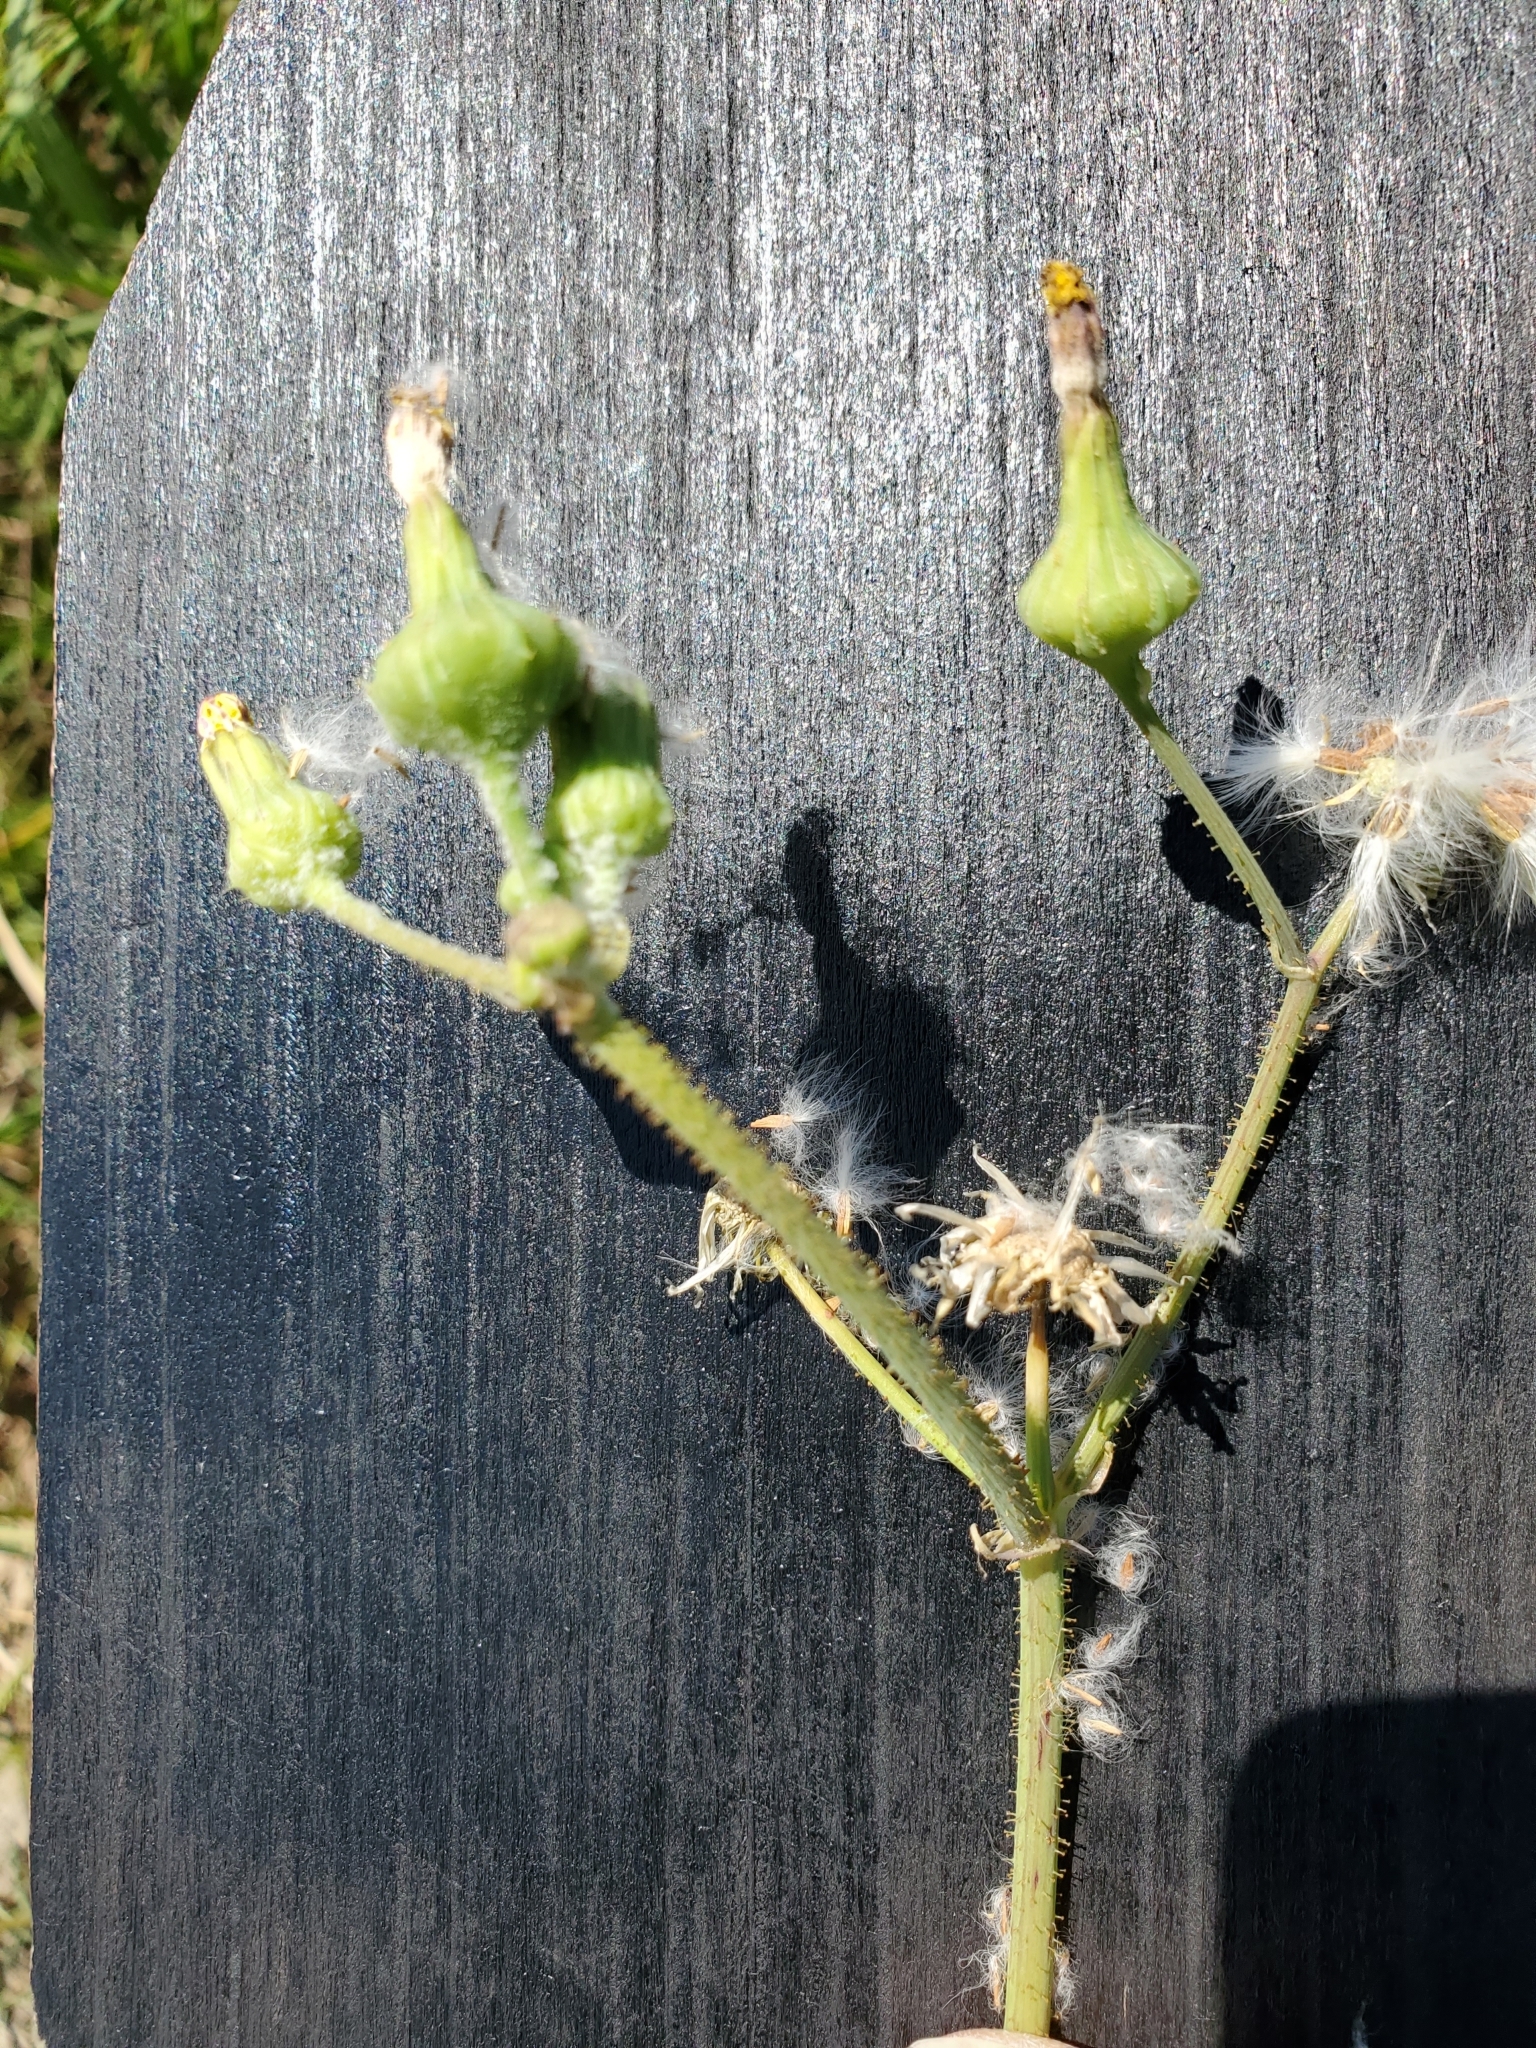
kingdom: Plantae
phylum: Tracheophyta
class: Magnoliopsida
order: Asterales
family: Asteraceae
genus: Sonchus
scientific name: Sonchus asper
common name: Prickly sow-thistle
